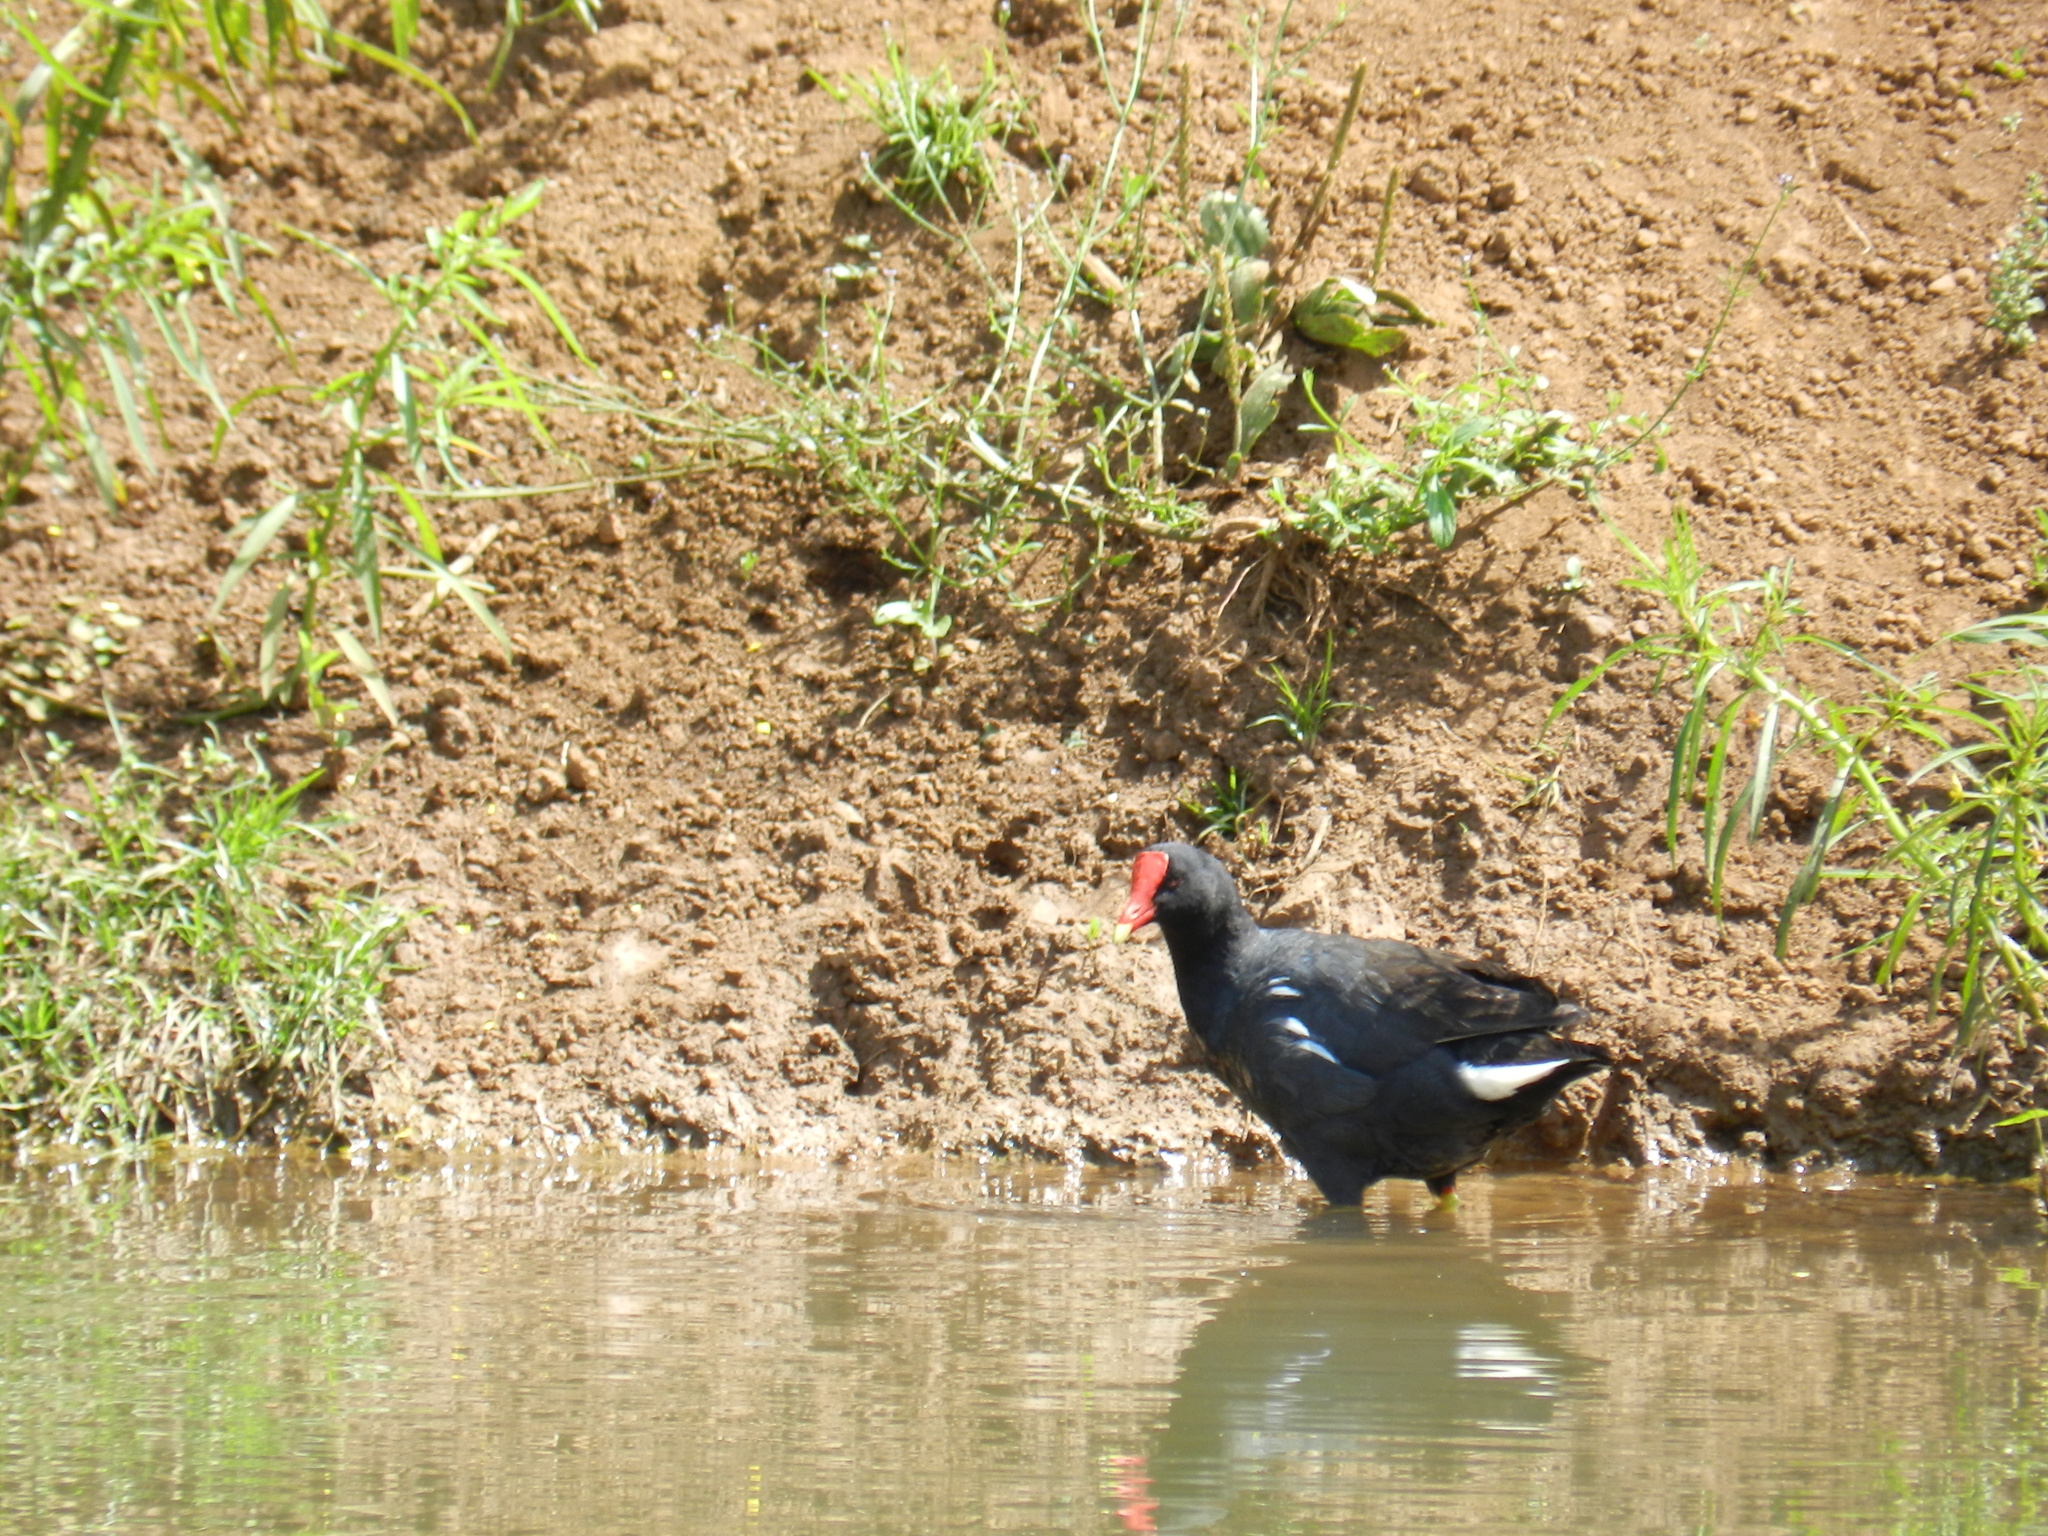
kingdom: Animalia
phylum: Chordata
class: Aves
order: Gruiformes
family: Rallidae
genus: Gallinula
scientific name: Gallinula chloropus
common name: Common moorhen
